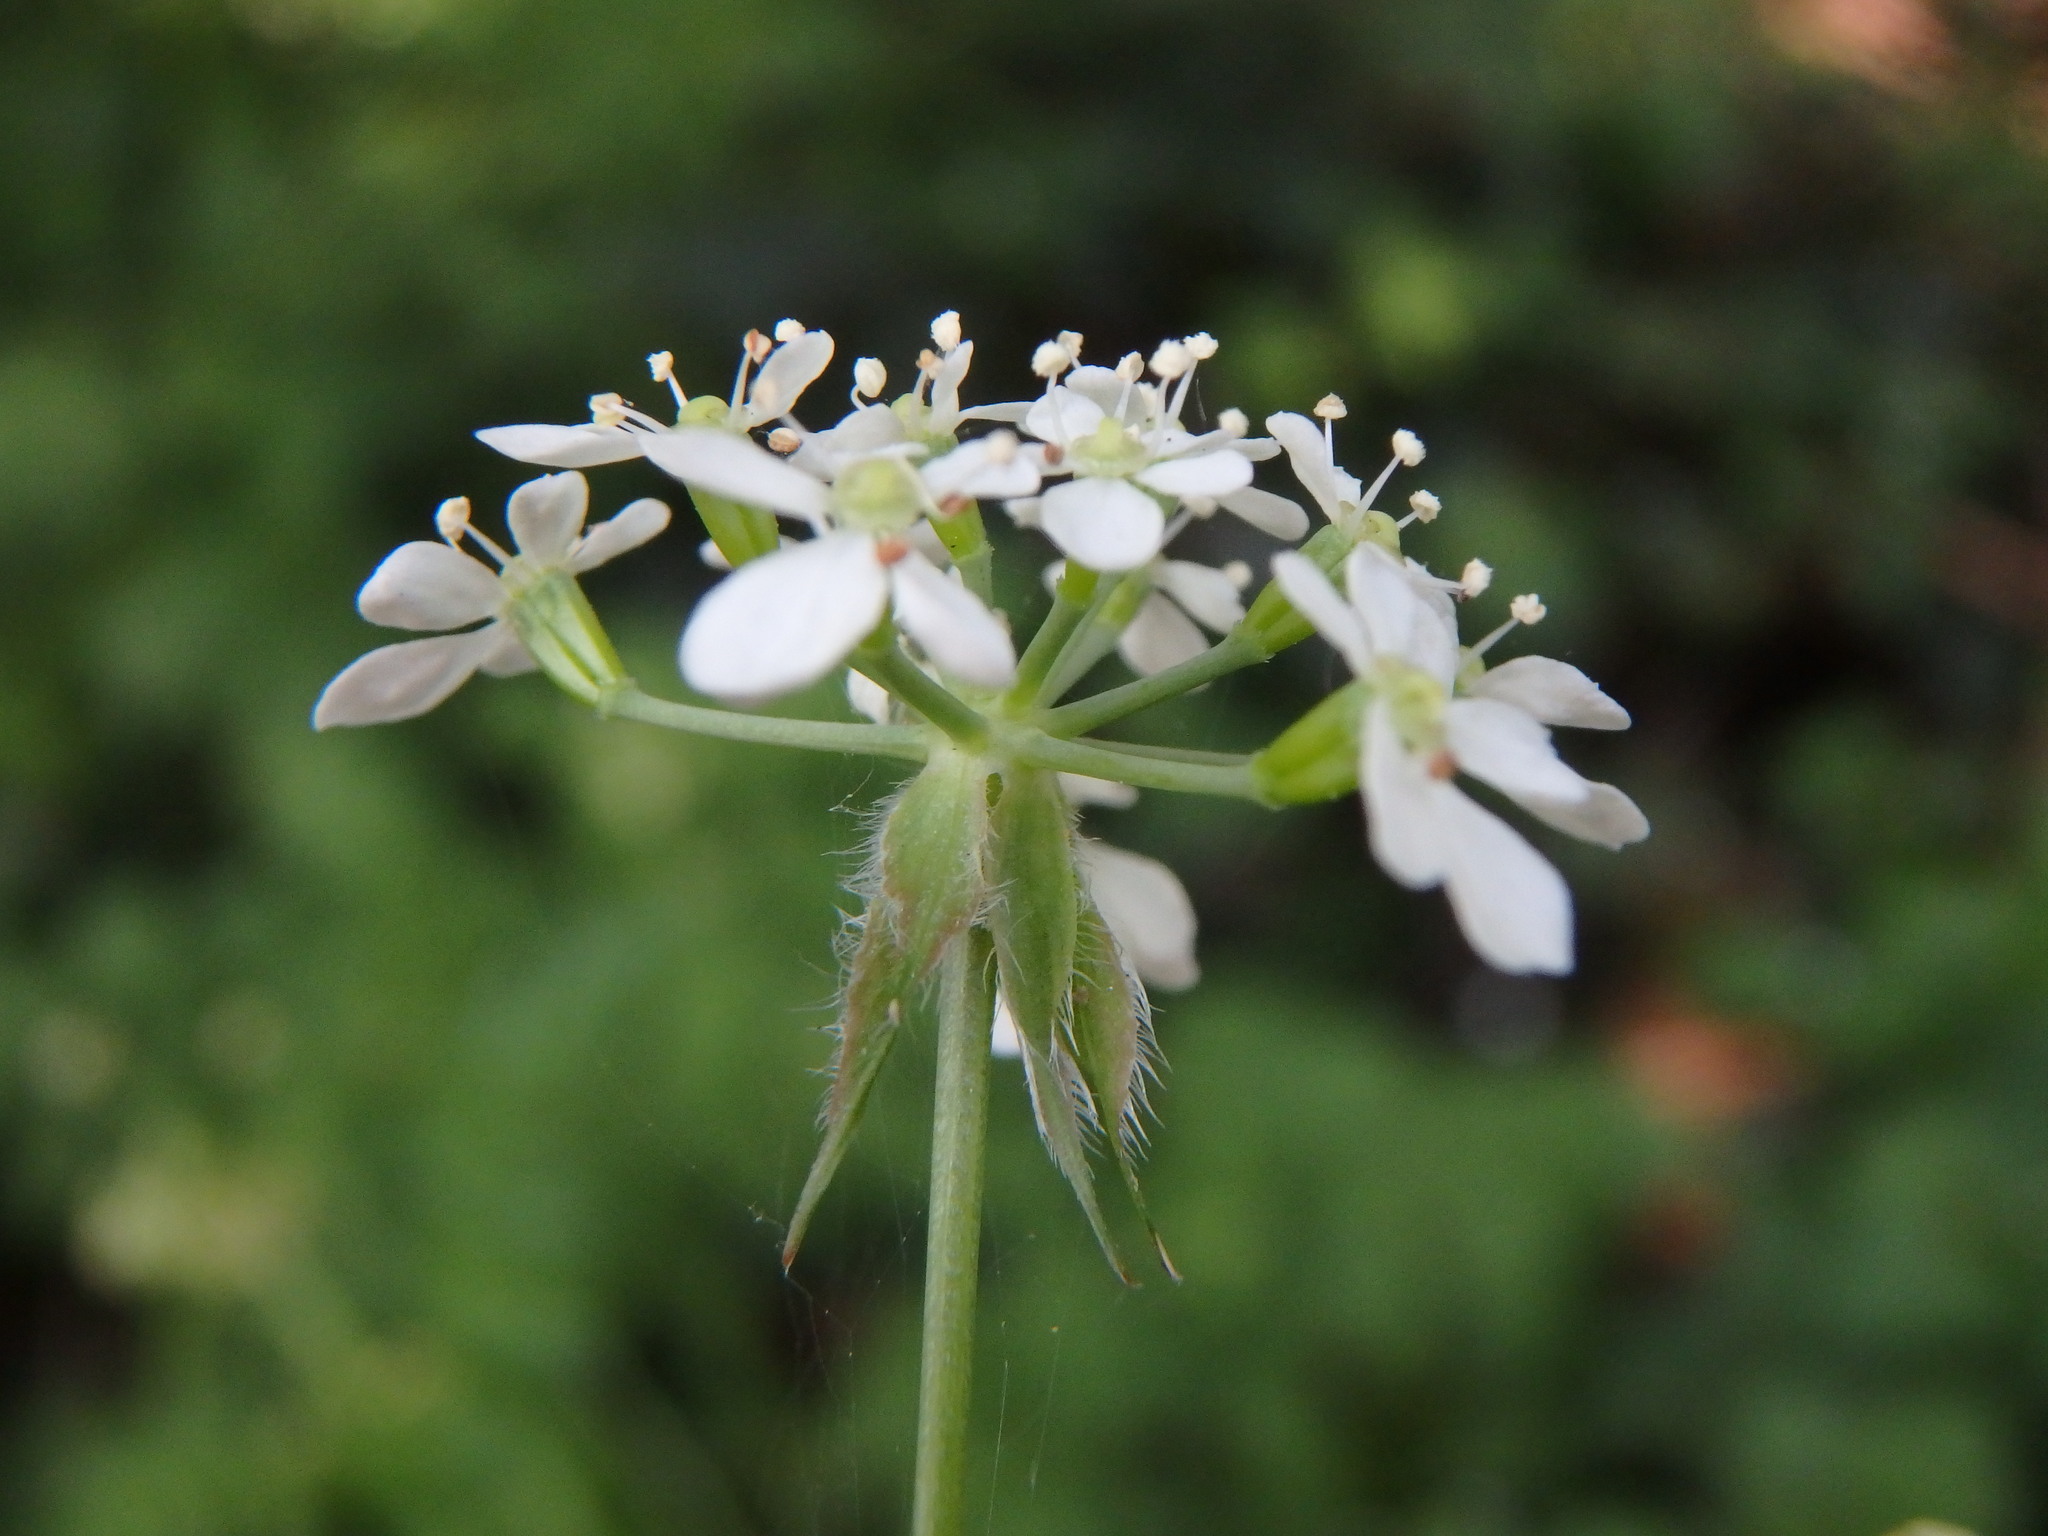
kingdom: Plantae
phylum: Tracheophyta
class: Magnoliopsida
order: Apiales
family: Apiaceae
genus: Anthriscus
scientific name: Anthriscus sylvestris
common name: Cow parsley
